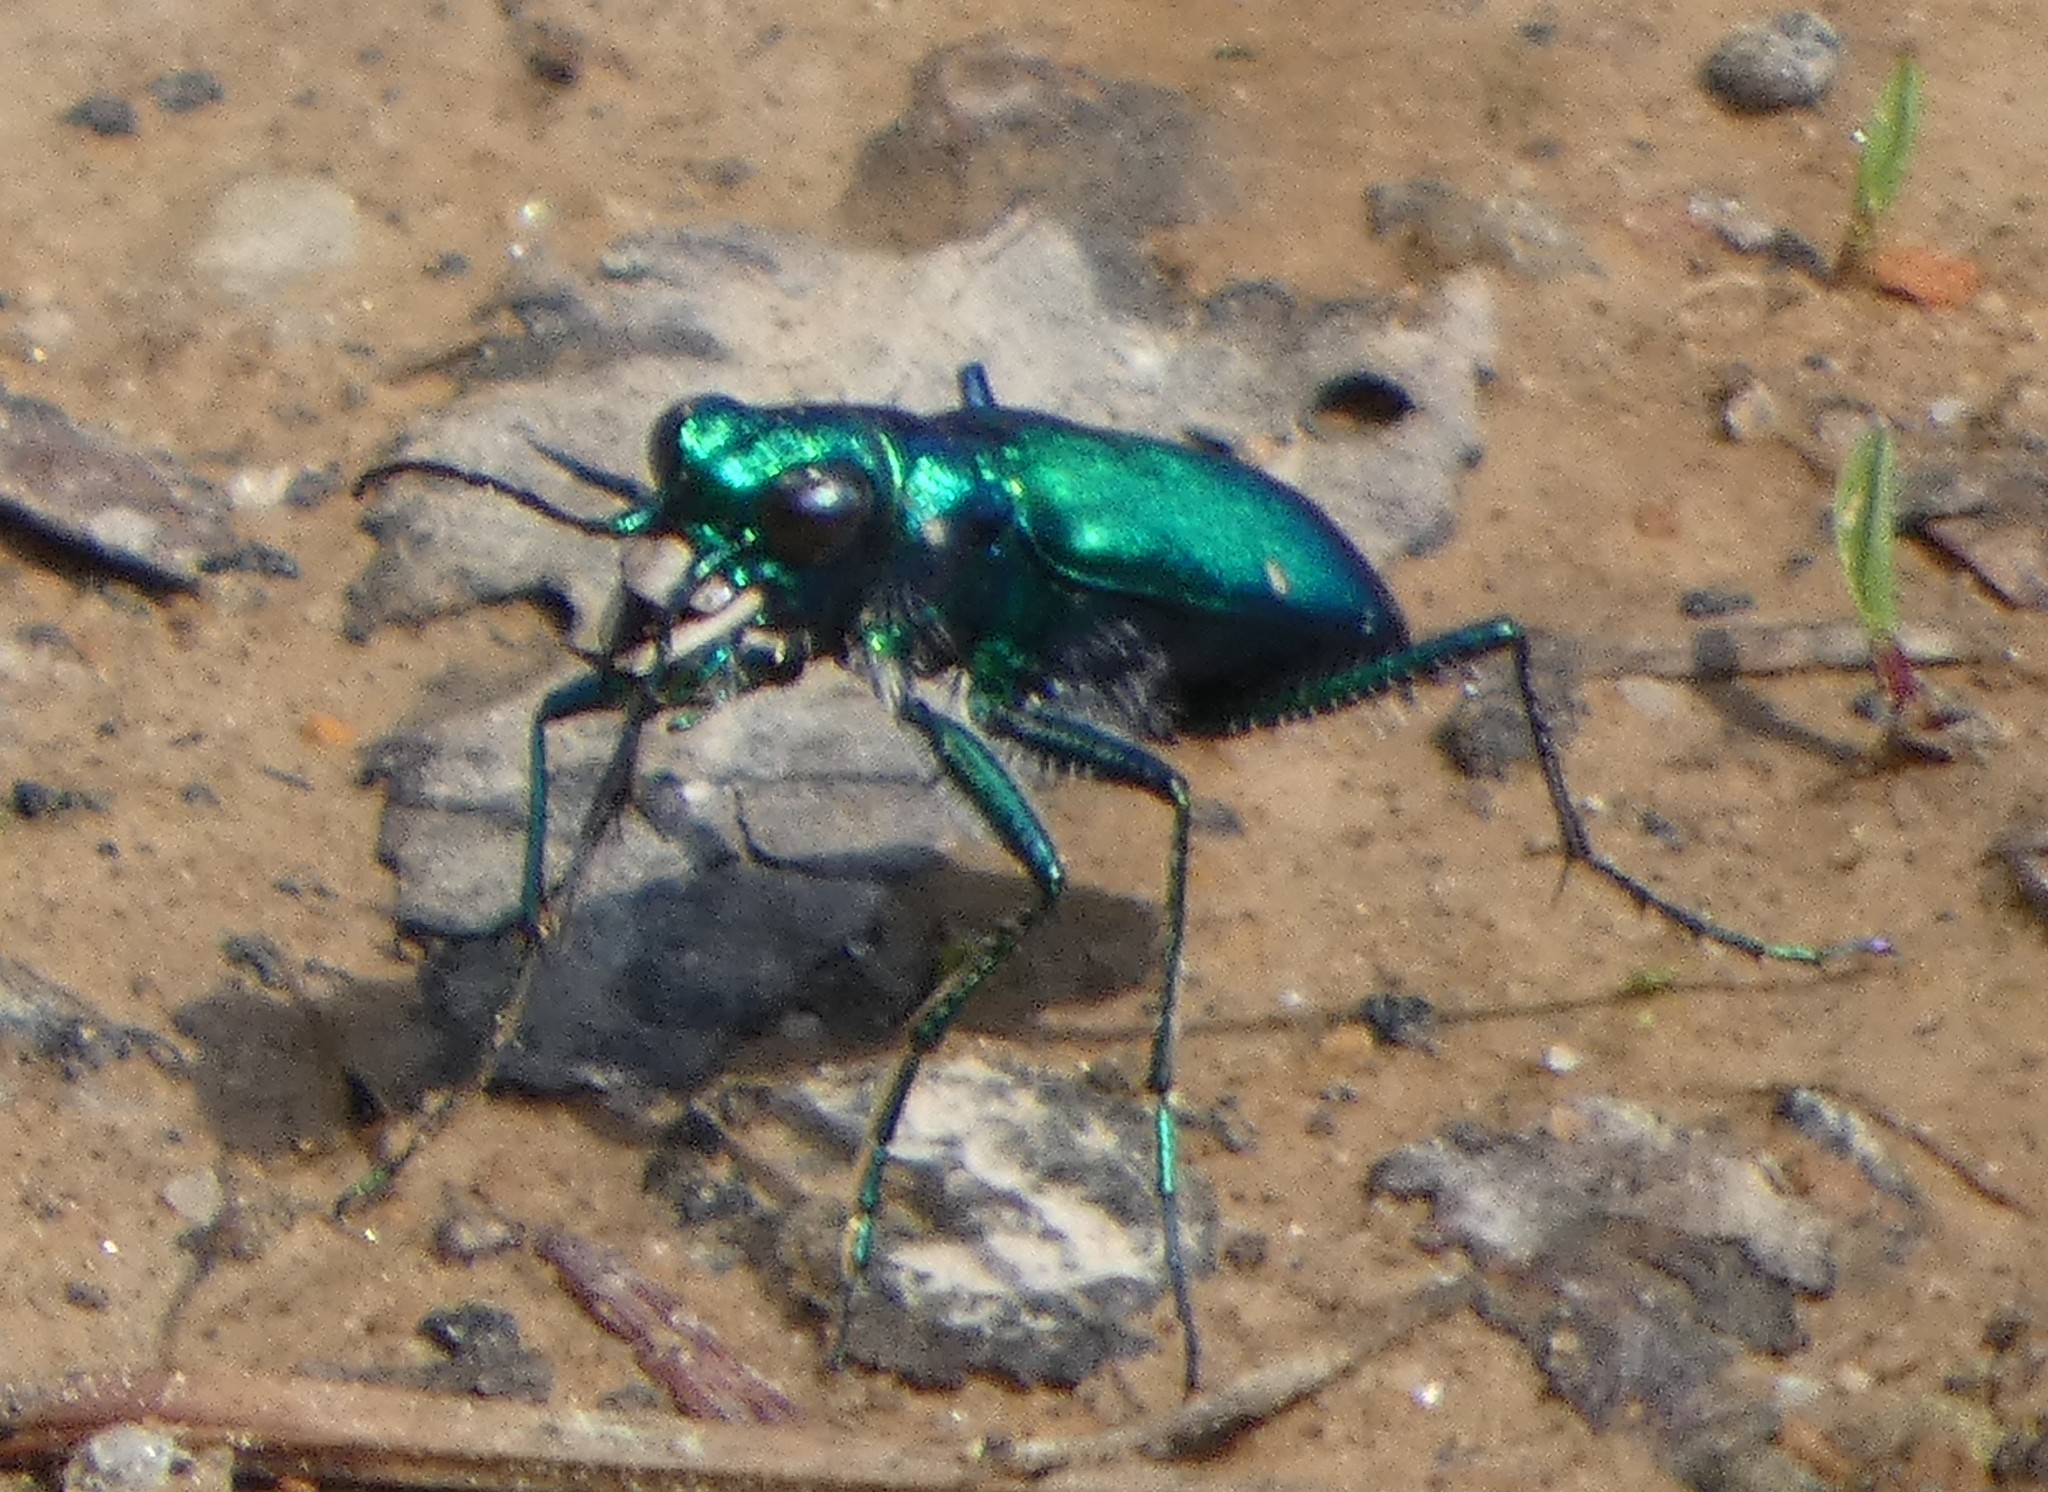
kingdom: Animalia
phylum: Arthropoda
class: Insecta
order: Coleoptera
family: Carabidae
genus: Cicindela
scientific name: Cicindela sexguttata
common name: Six-spotted tiger beetle
